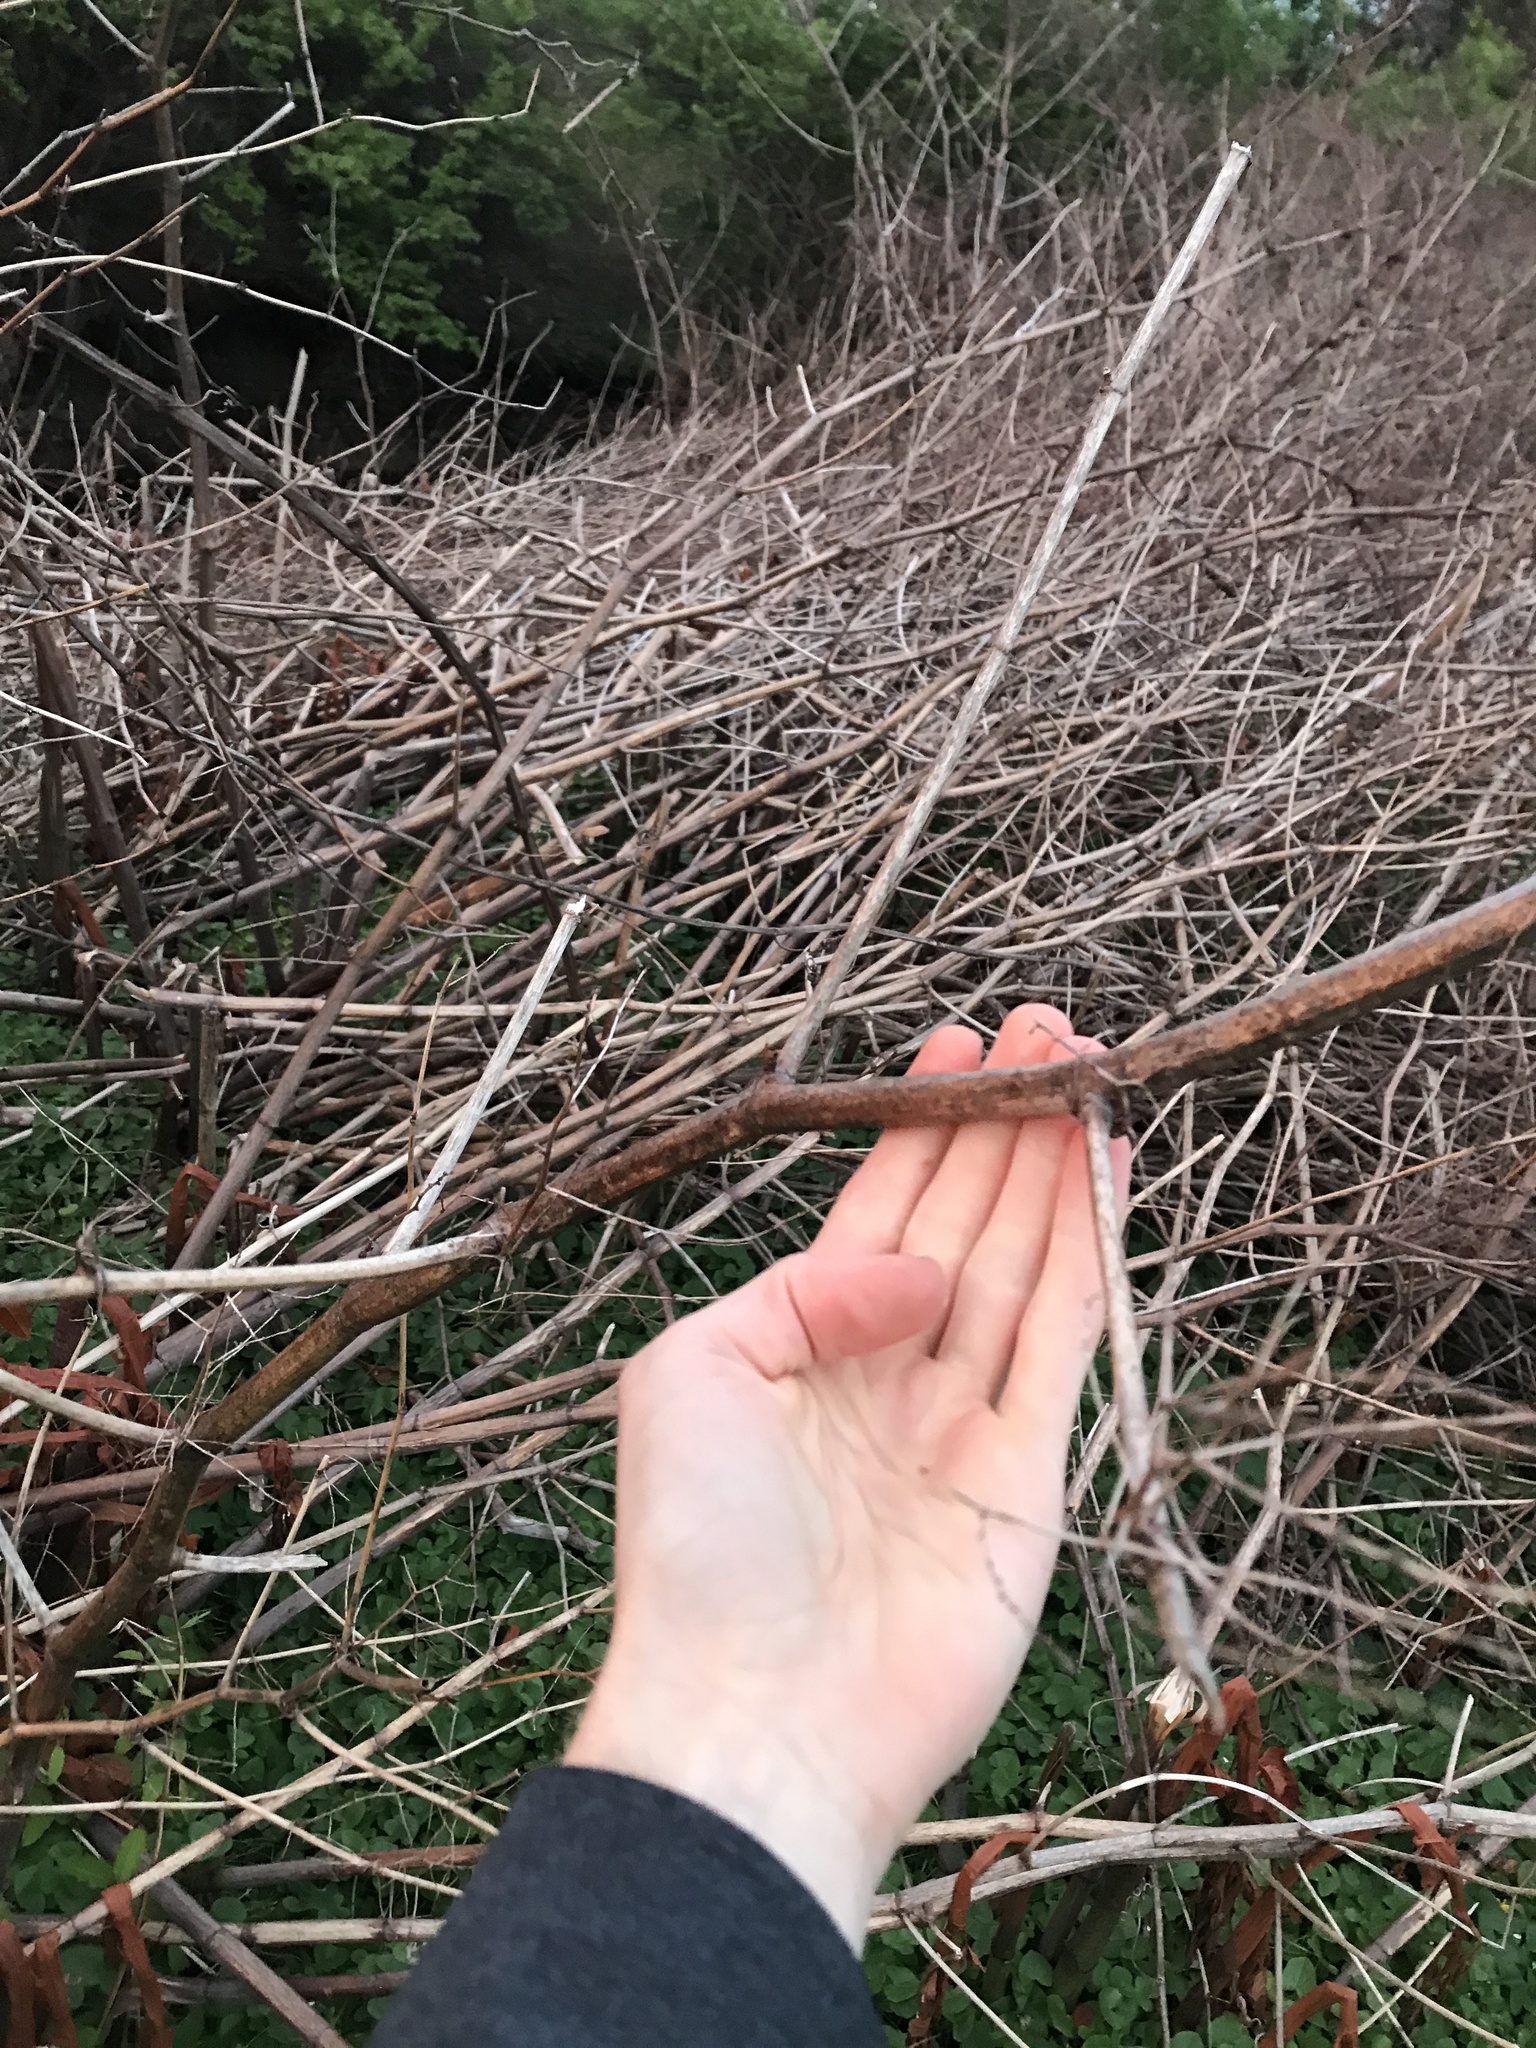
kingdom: Plantae
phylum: Tracheophyta
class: Magnoliopsida
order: Caryophyllales
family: Polygonaceae
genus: Reynoutria
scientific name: Reynoutria japonica
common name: Japanese knotweed
